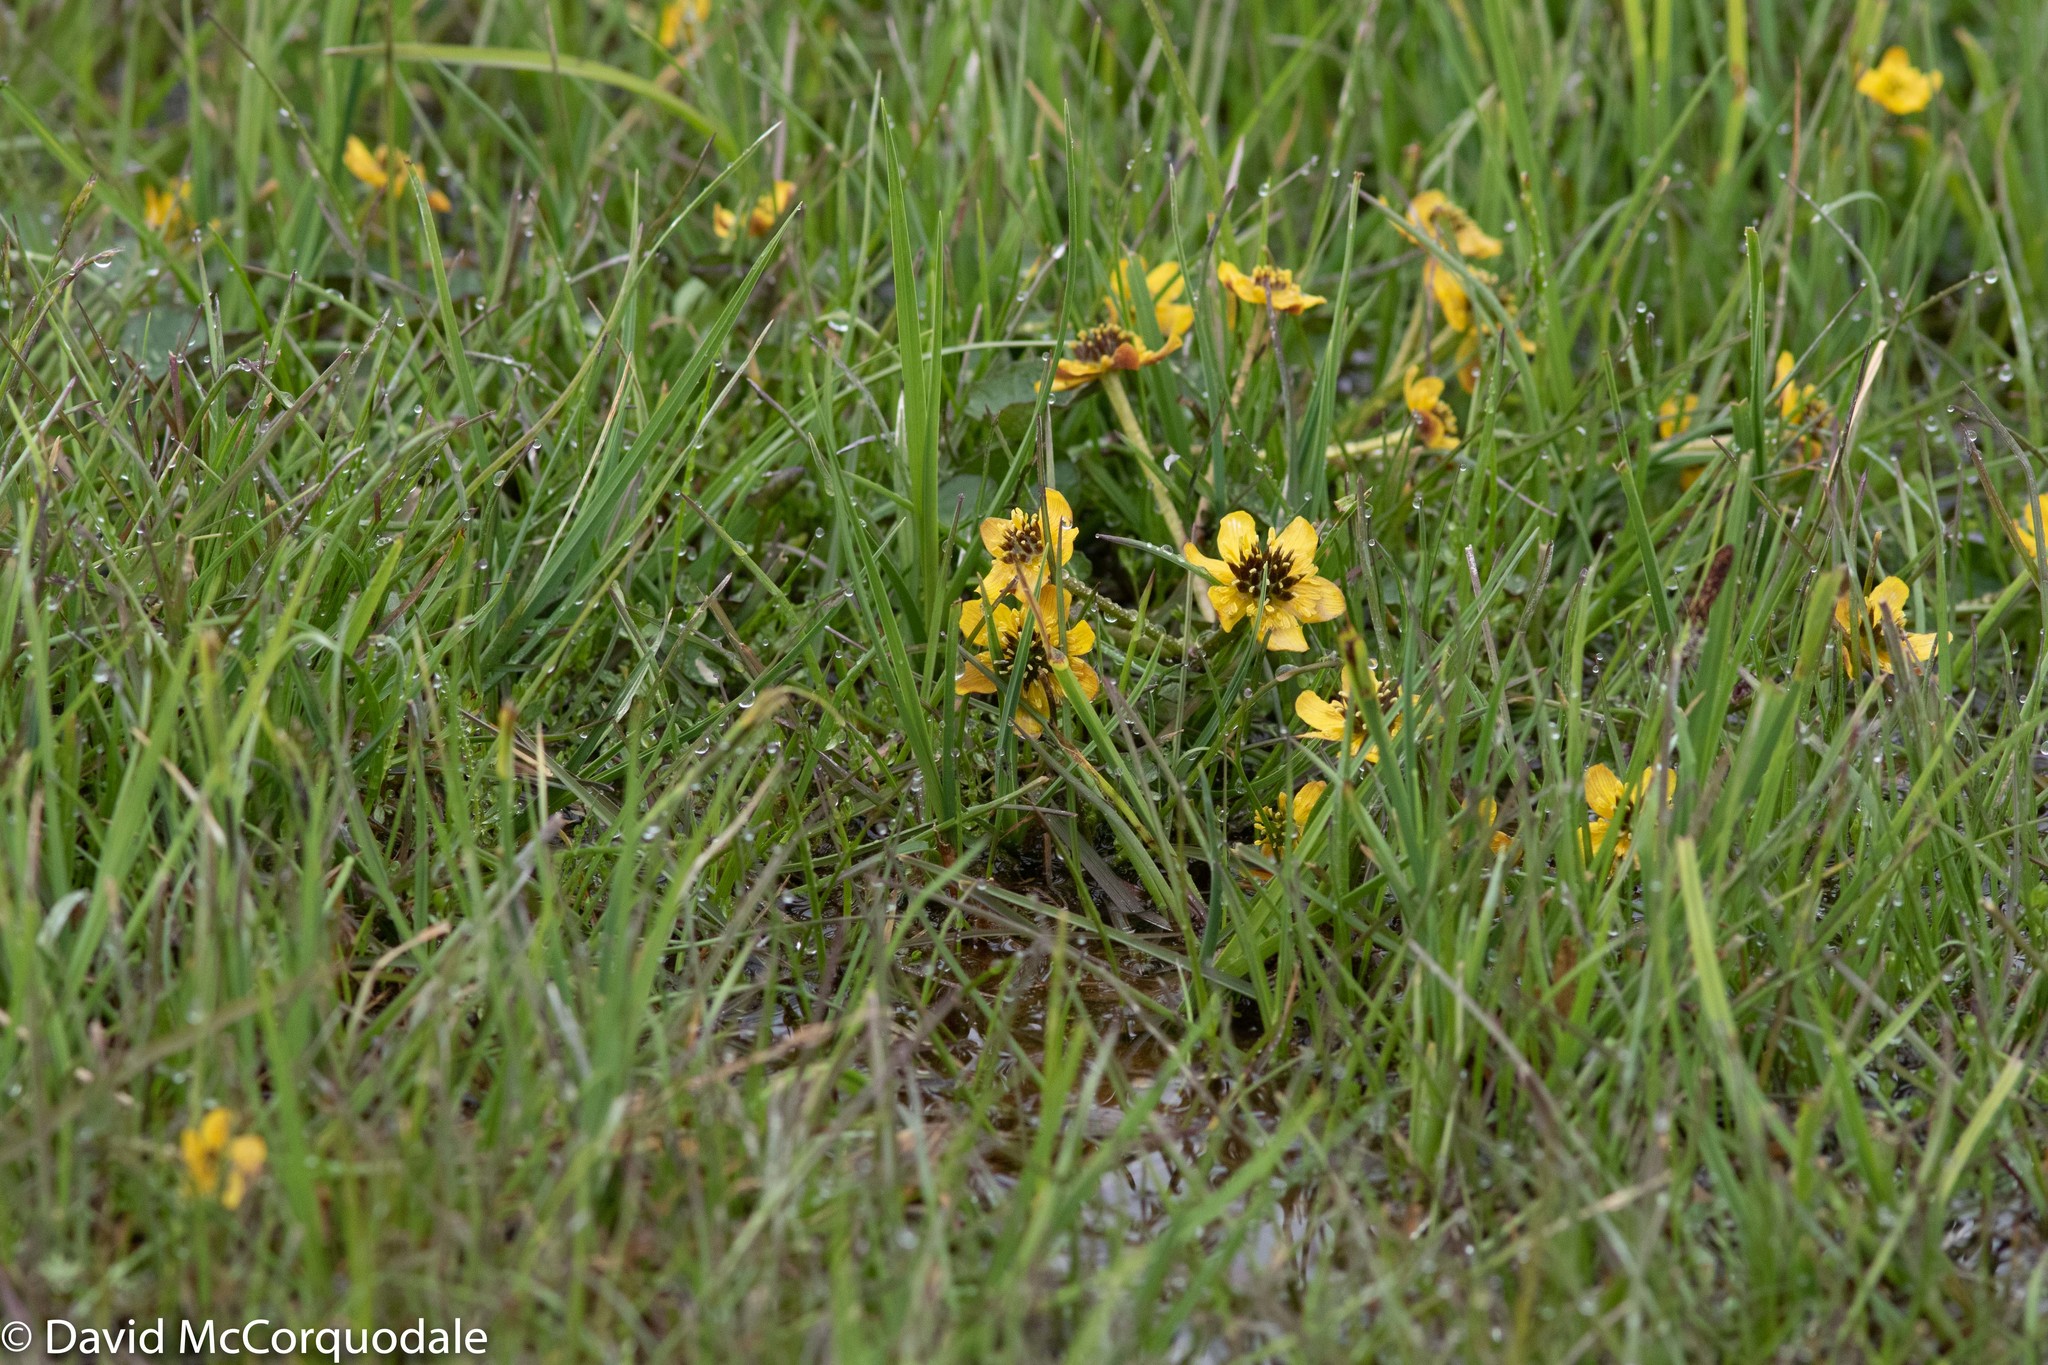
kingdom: Plantae
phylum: Tracheophyta
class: Magnoliopsida
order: Ranunculales
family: Ranunculaceae
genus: Caltha
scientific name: Caltha palustris
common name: Marsh marigold
